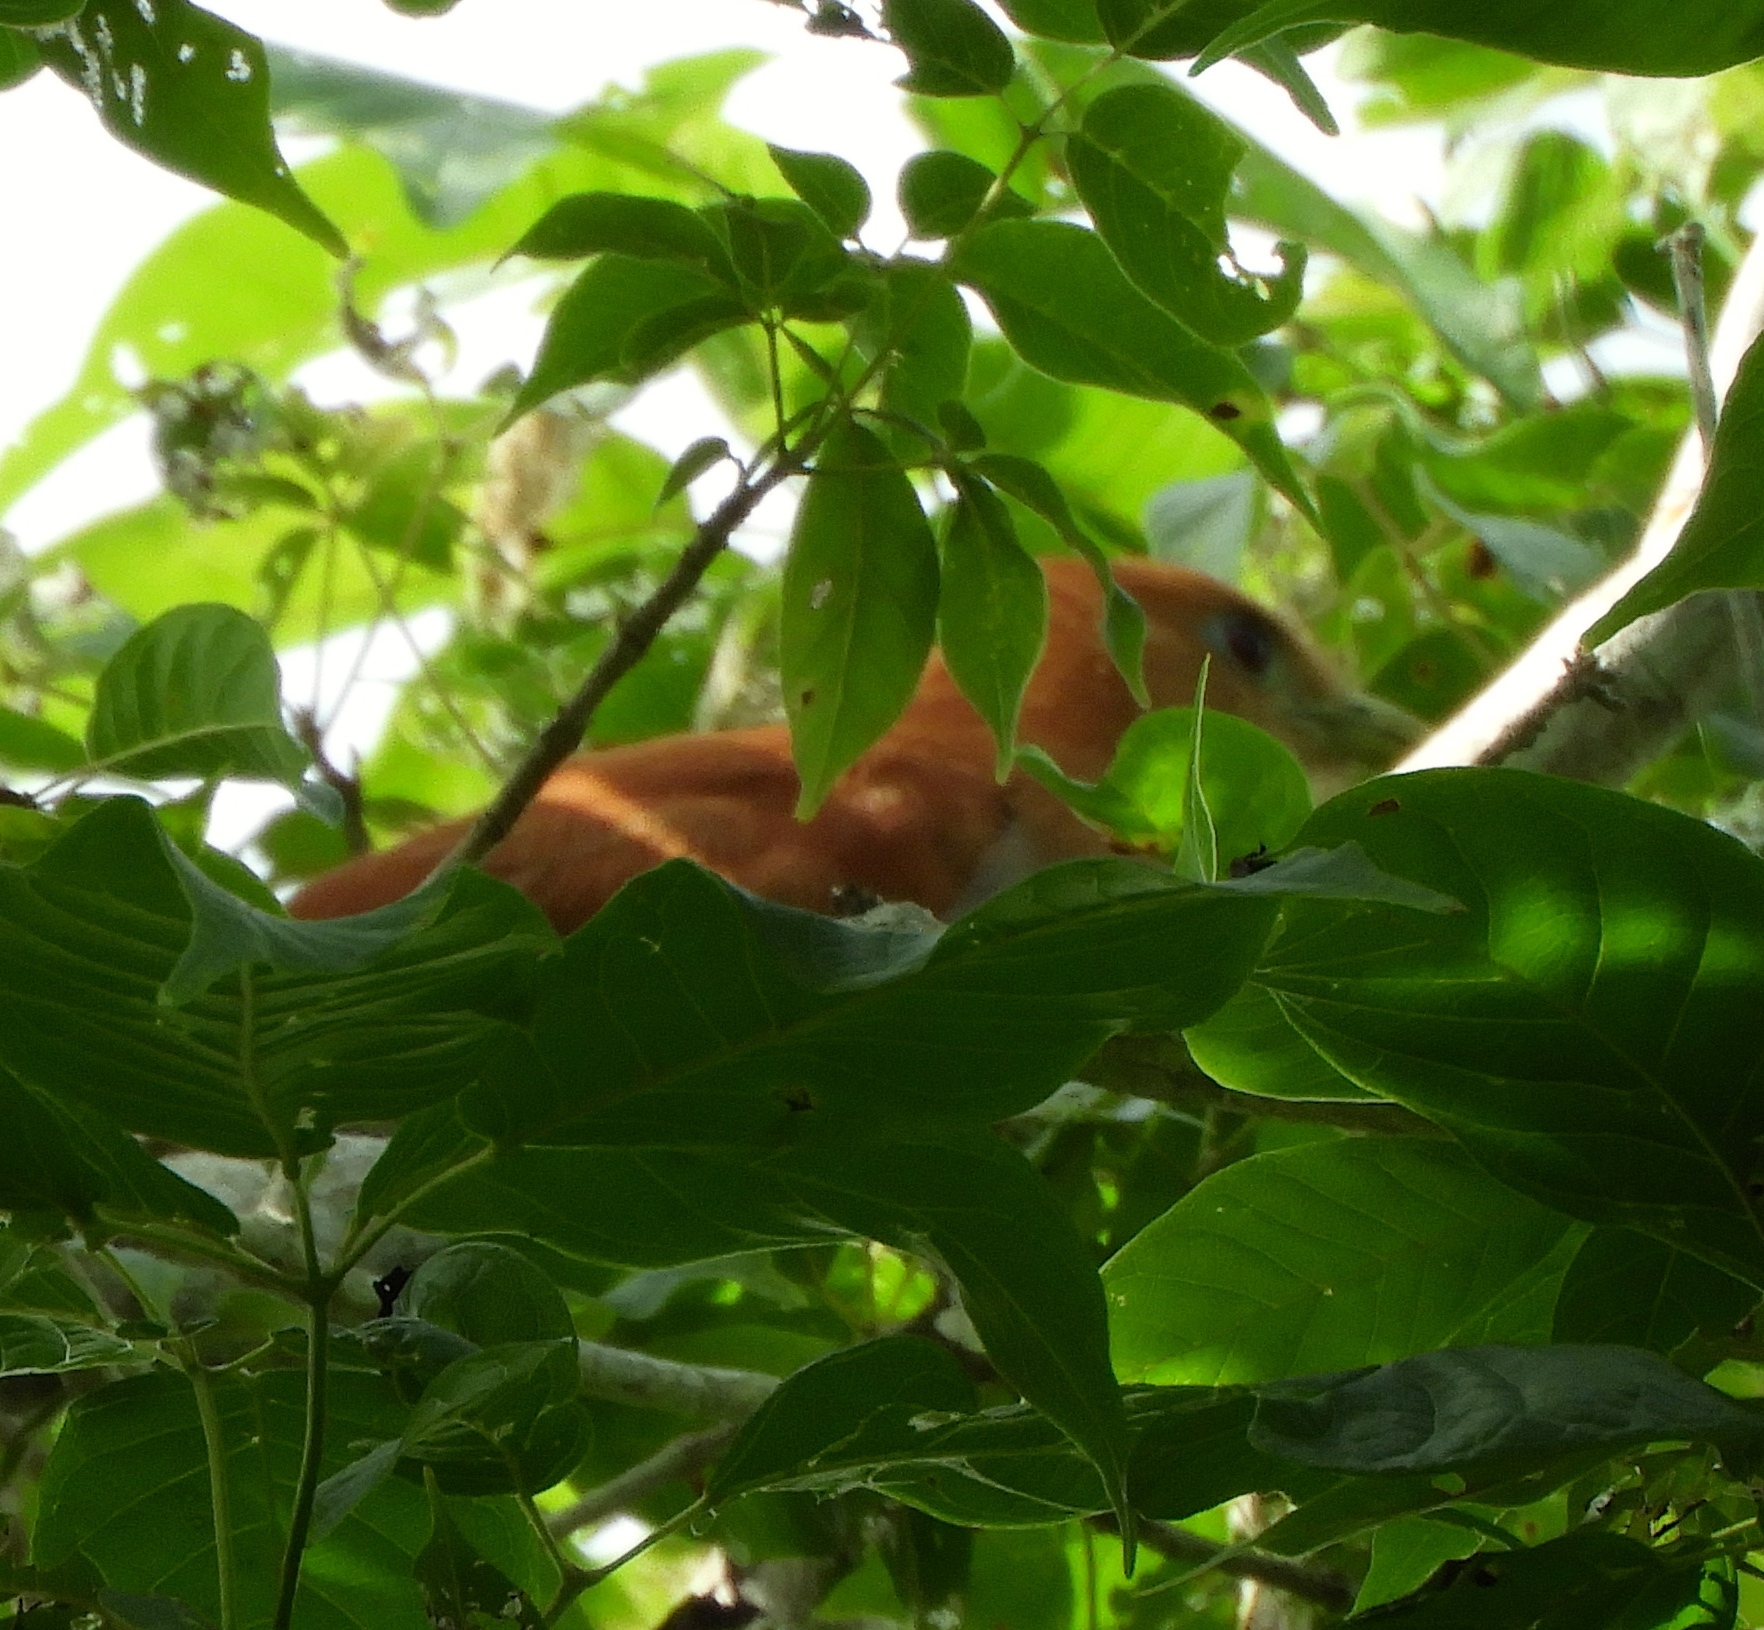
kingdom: Animalia
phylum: Chordata
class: Aves
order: Cuculiformes
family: Cuculidae
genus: Piaya
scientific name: Piaya cayana
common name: Squirrel cuckoo
